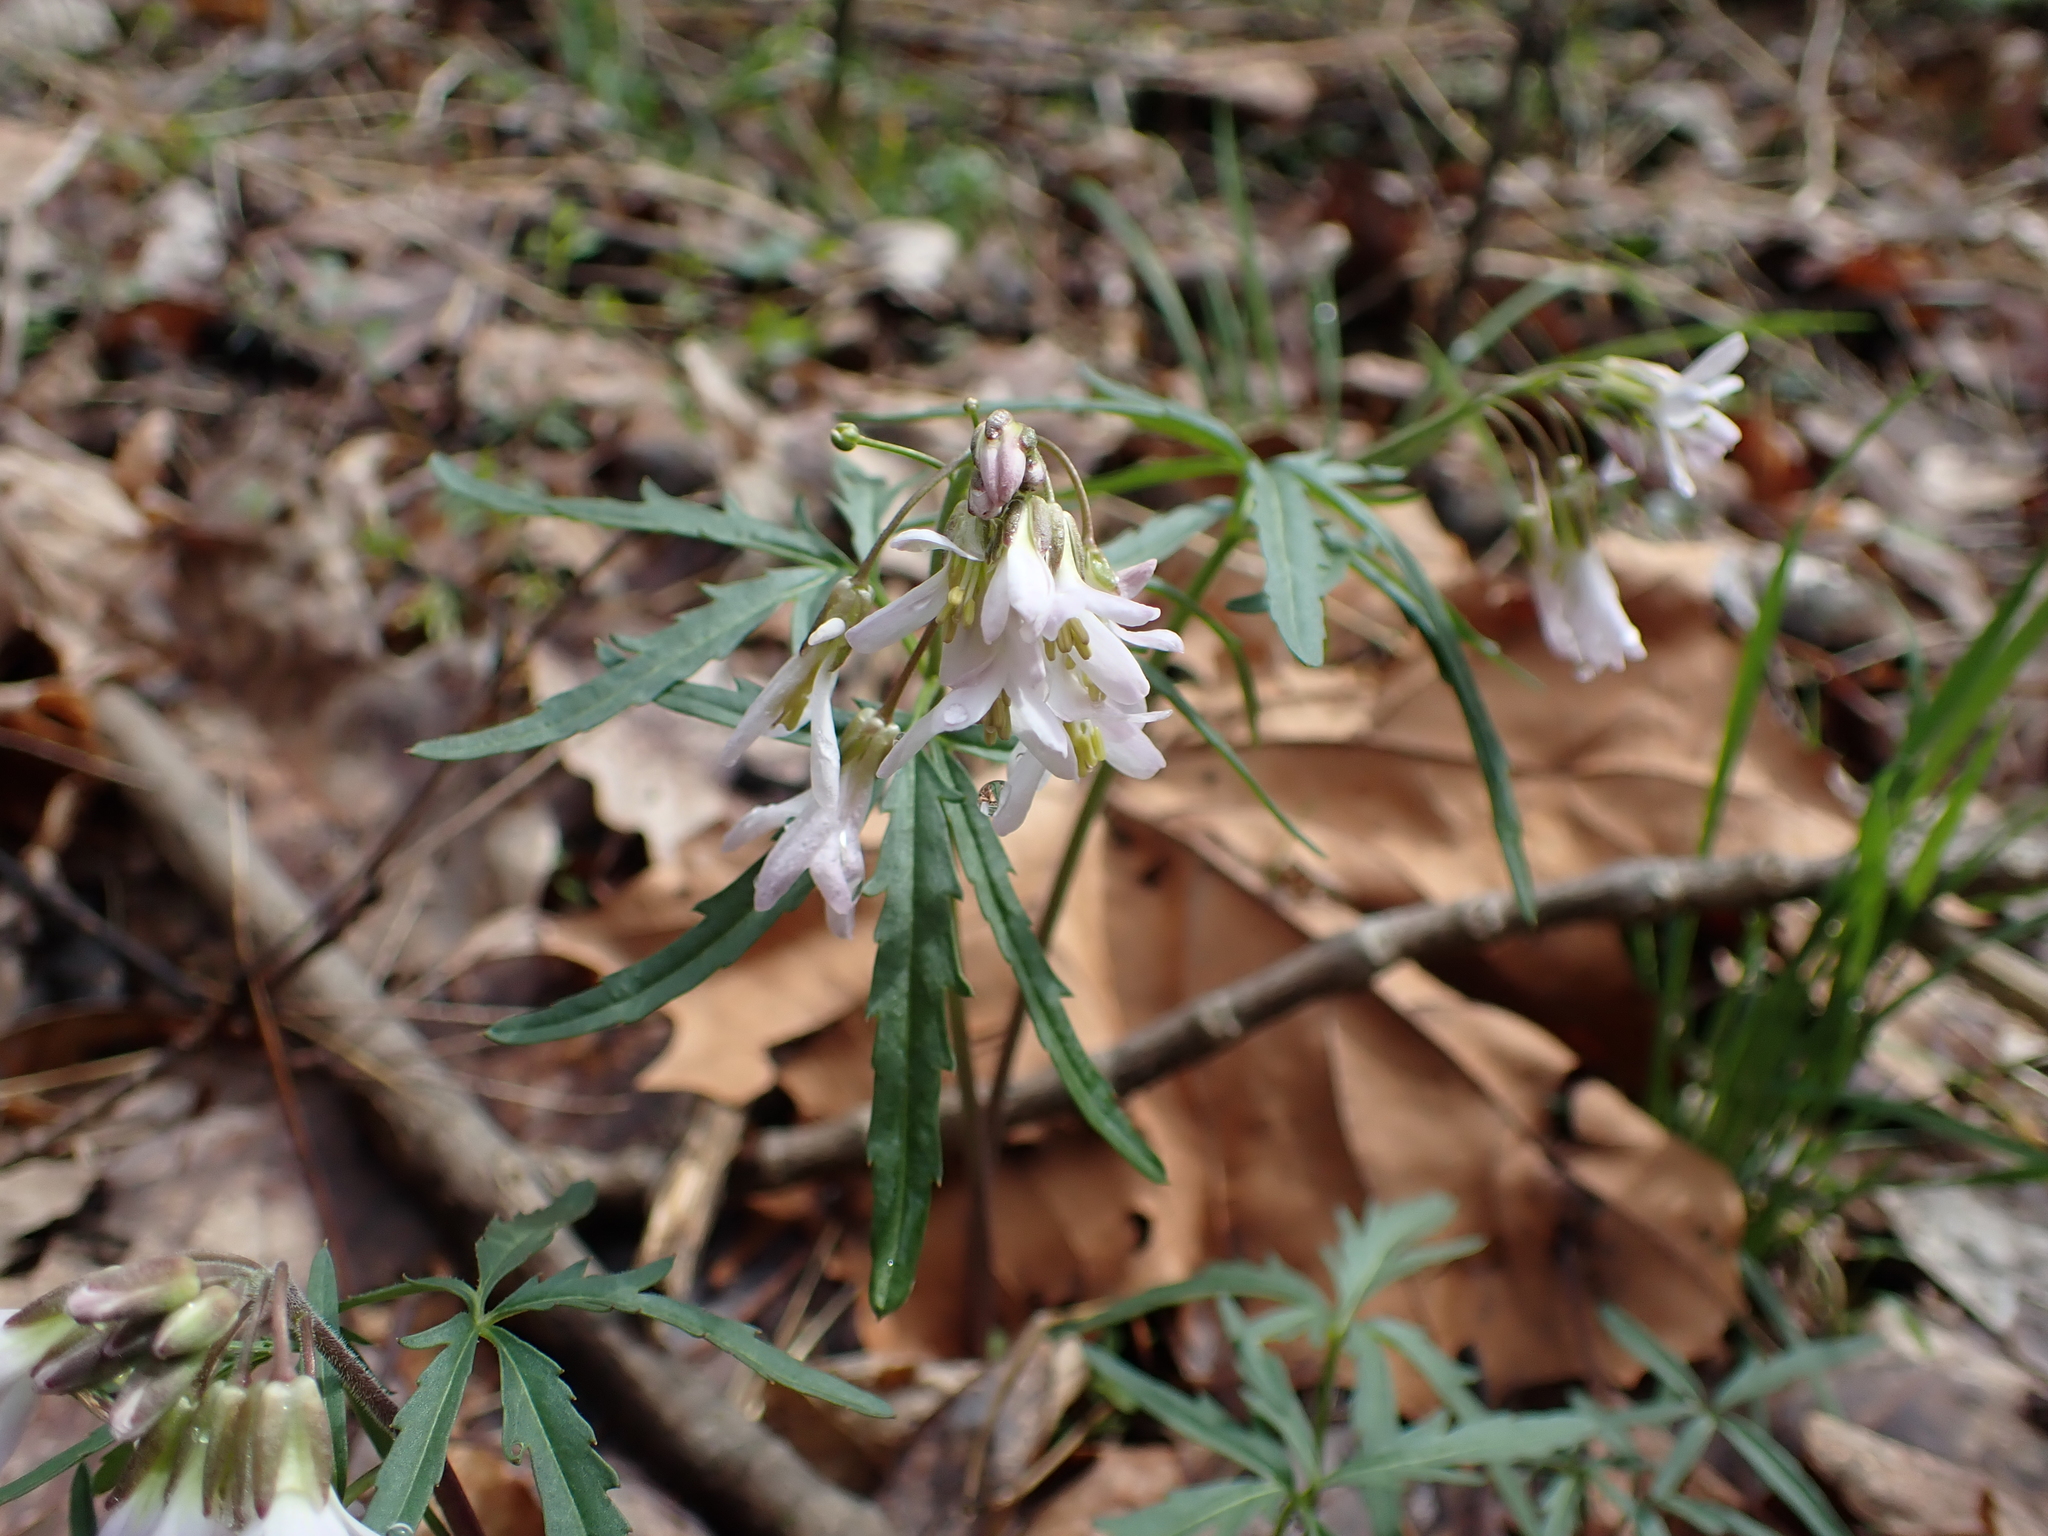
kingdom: Plantae
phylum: Tracheophyta
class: Magnoliopsida
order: Brassicales
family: Brassicaceae
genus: Cardamine
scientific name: Cardamine concatenata
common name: Cut-leaf toothcup
